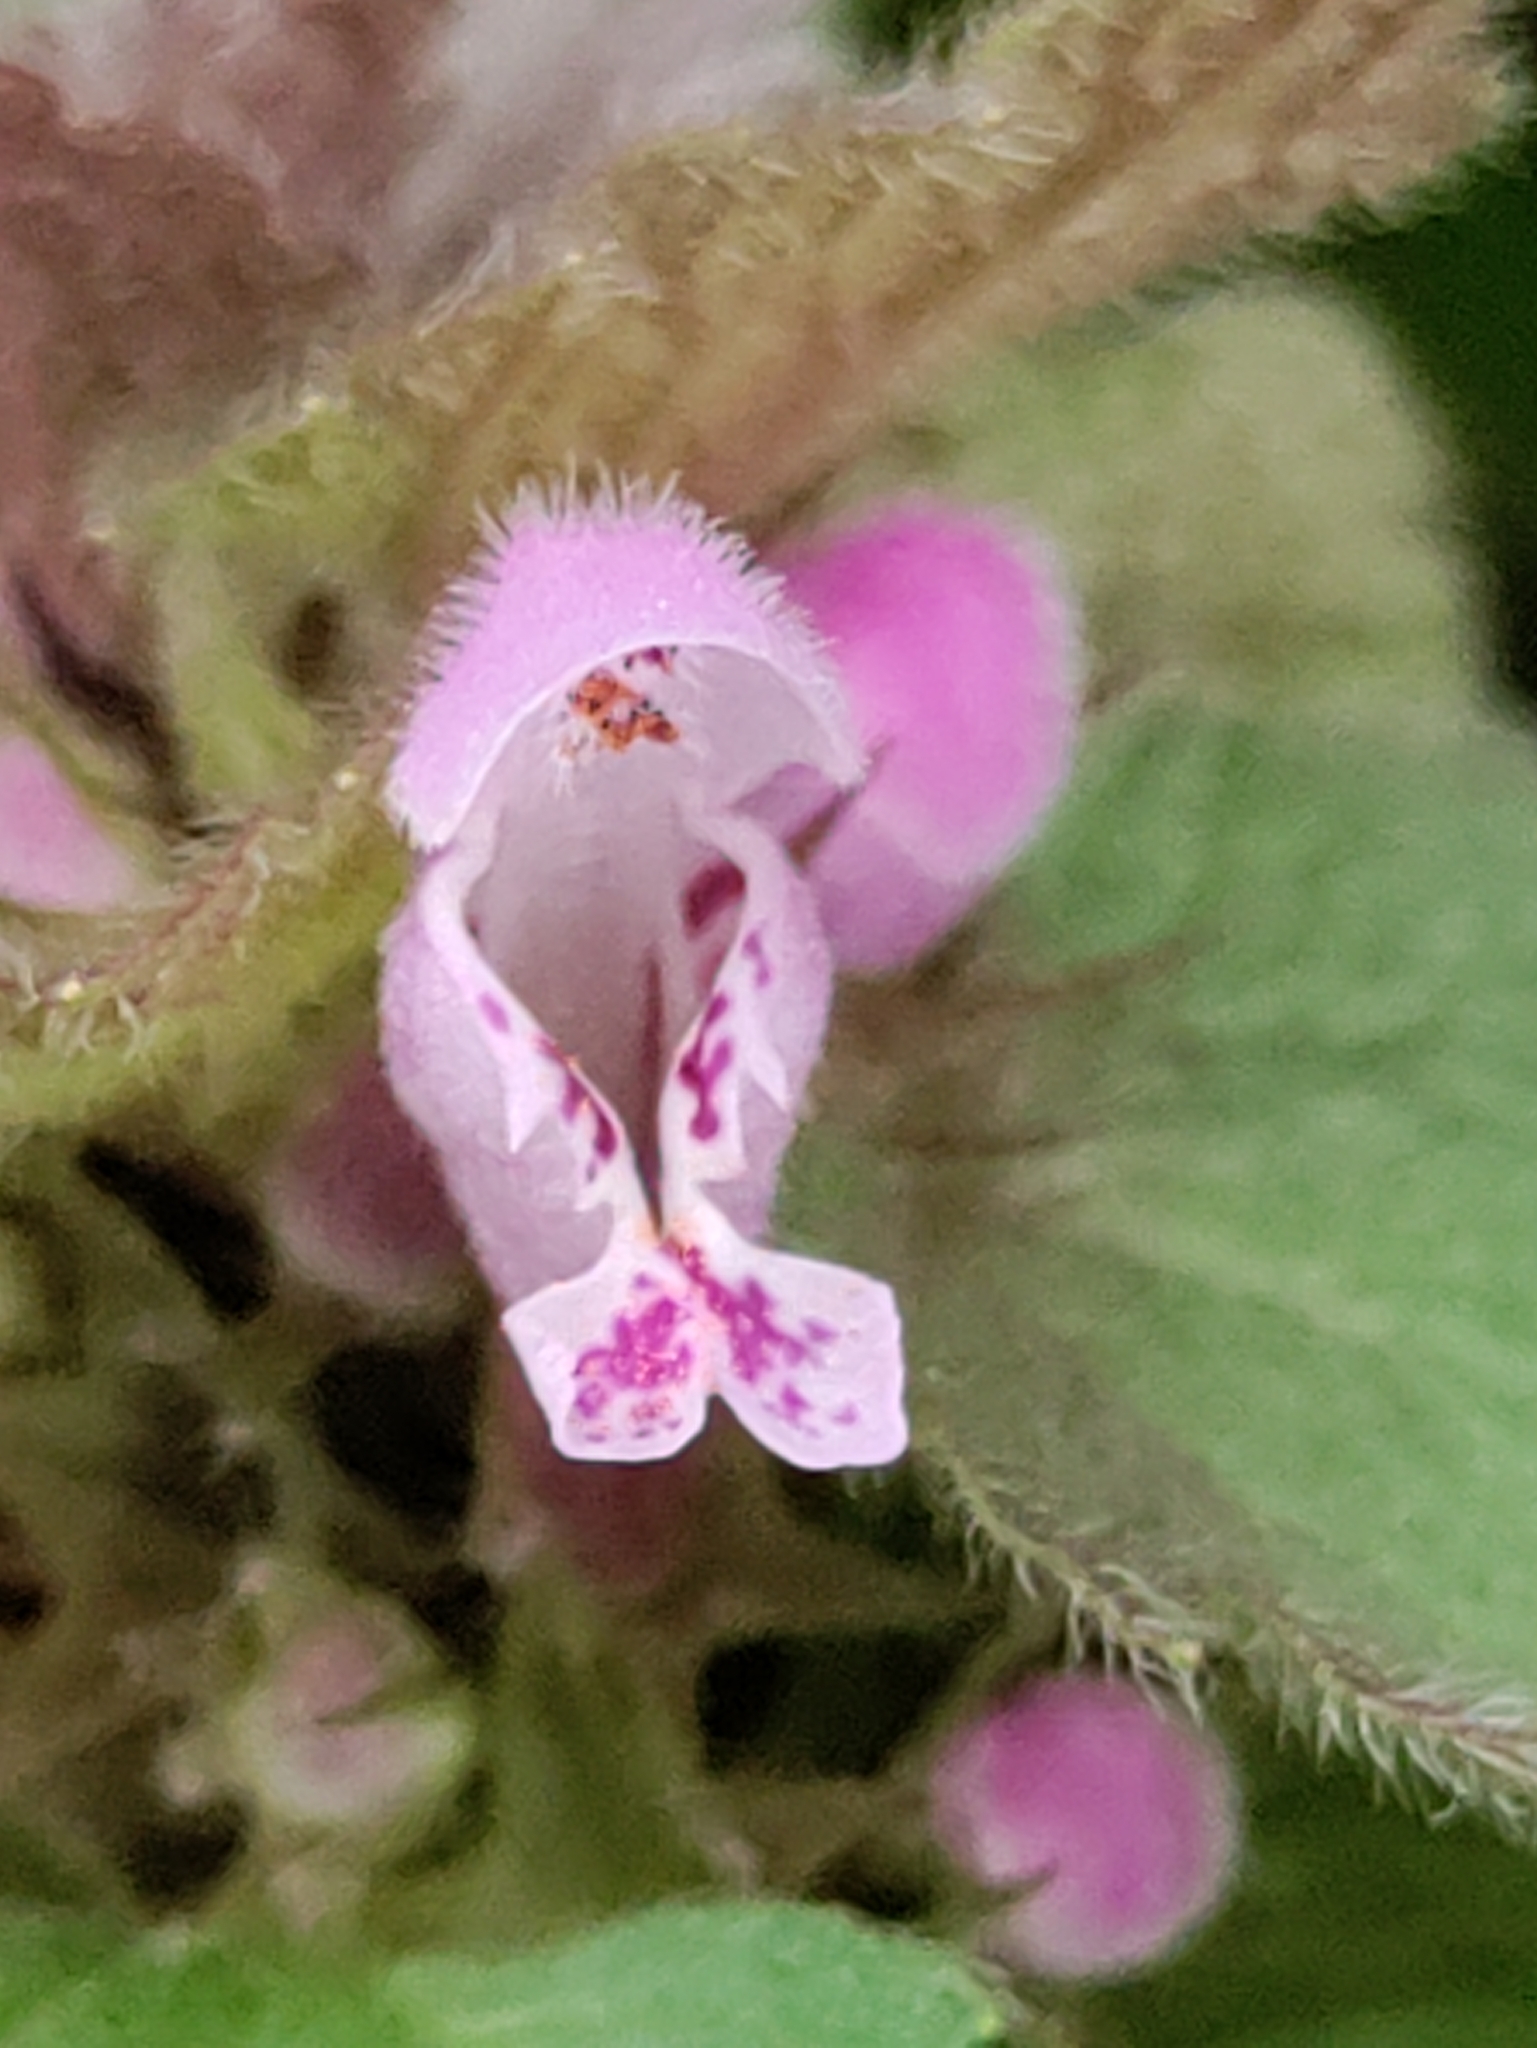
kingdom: Plantae
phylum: Tracheophyta
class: Magnoliopsida
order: Lamiales
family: Lamiaceae
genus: Lamium
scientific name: Lamium purpureum
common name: Red dead-nettle
